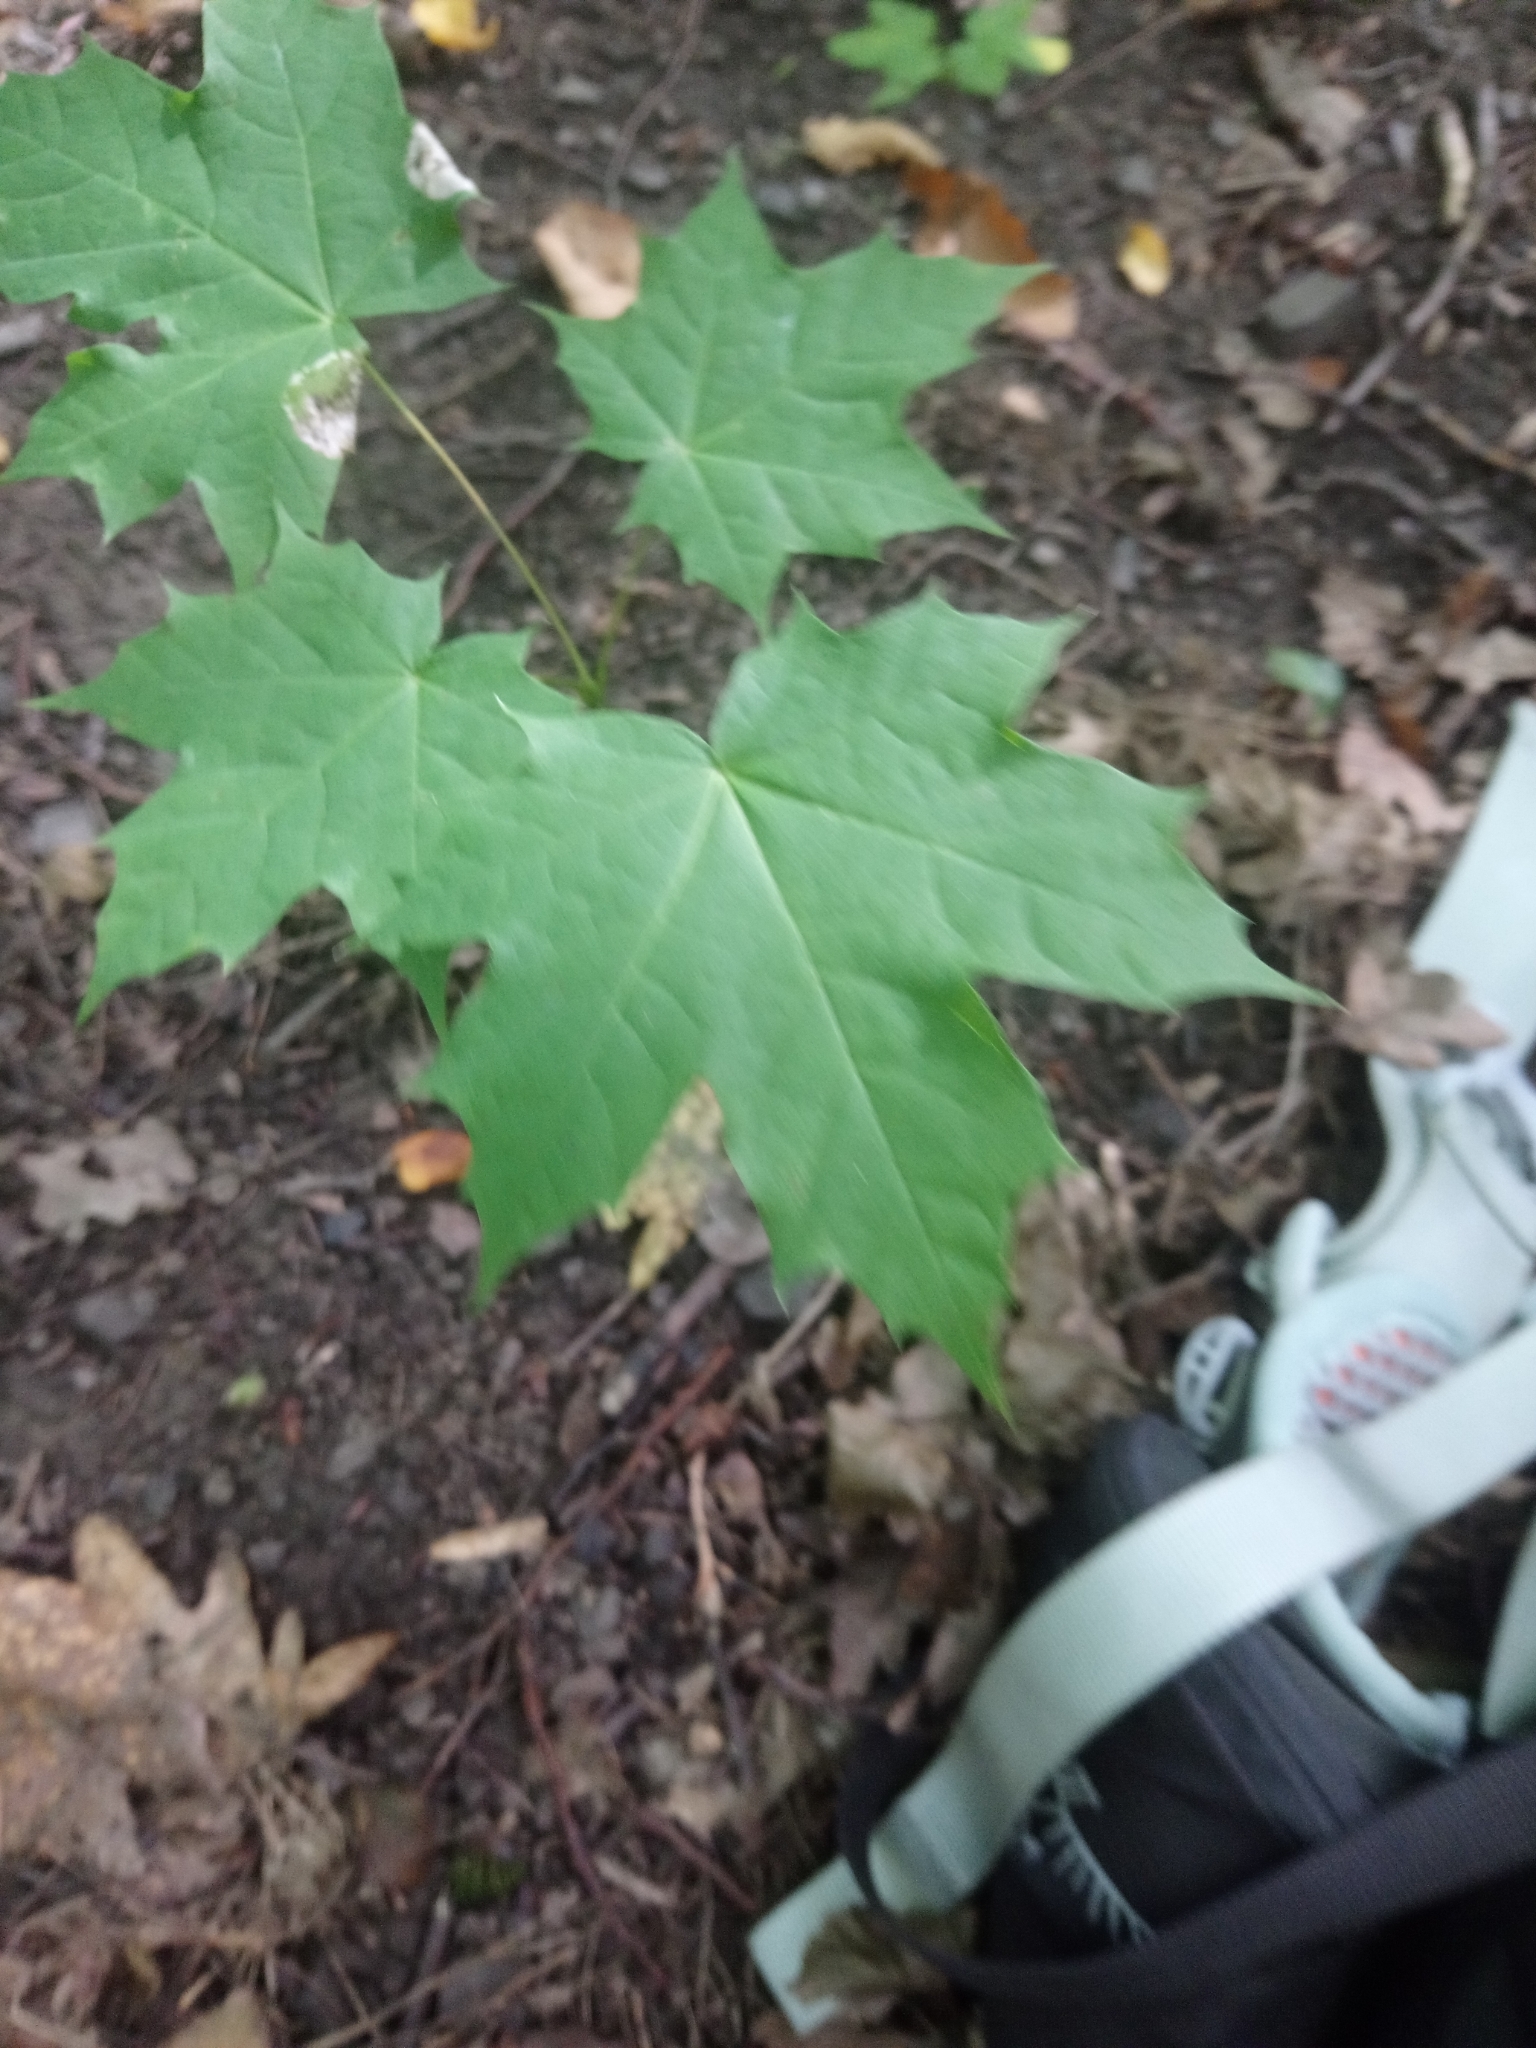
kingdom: Plantae
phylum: Tracheophyta
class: Magnoliopsida
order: Sapindales
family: Sapindaceae
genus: Acer
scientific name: Acer platanoides
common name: Norway maple
